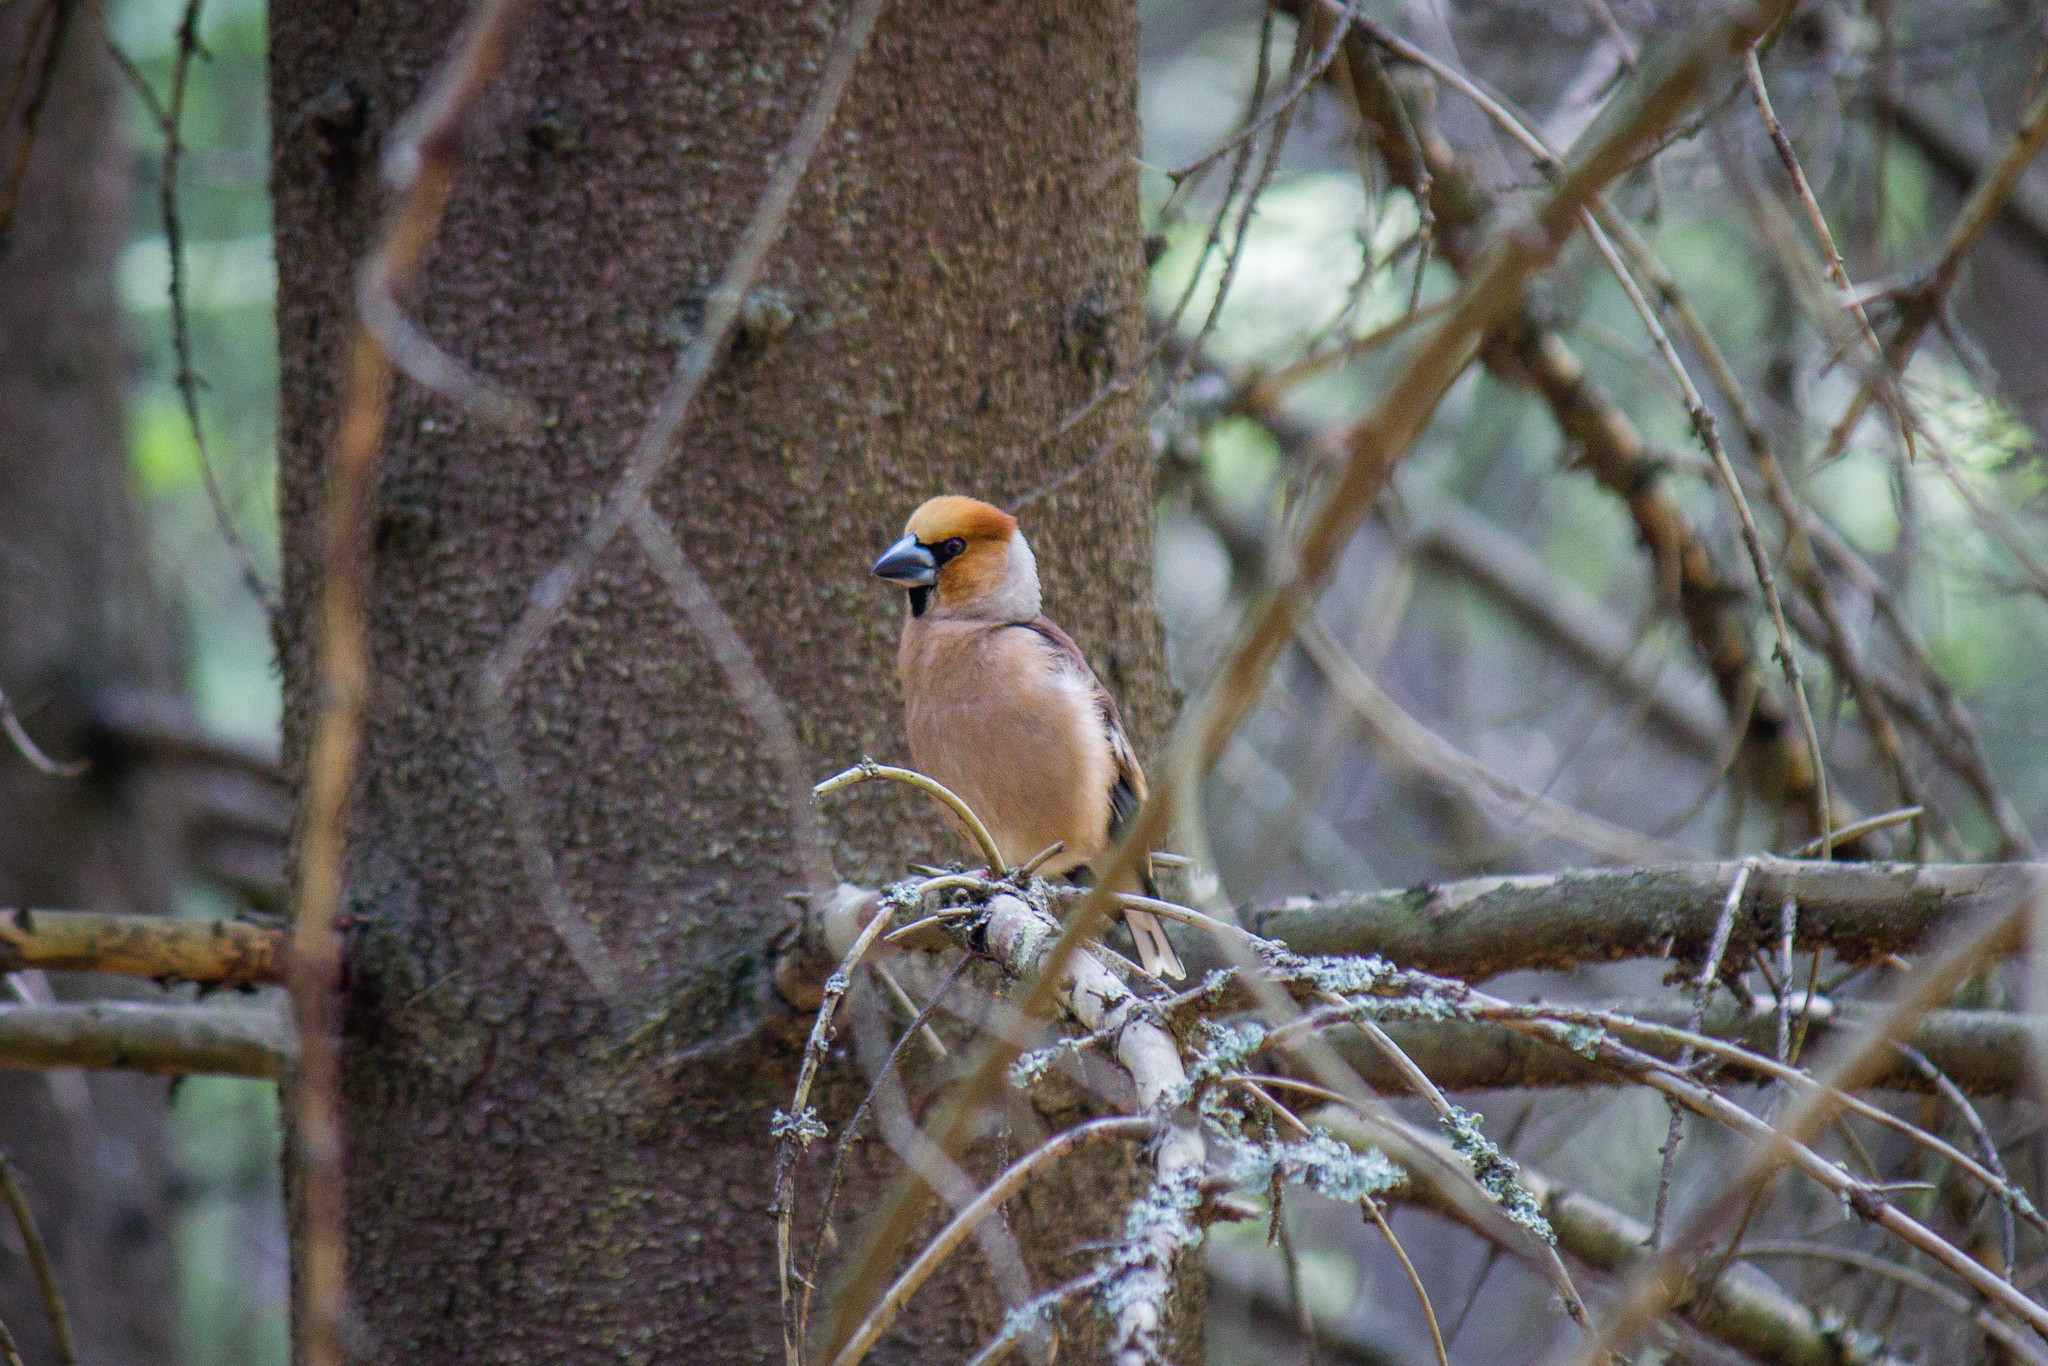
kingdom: Animalia
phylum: Chordata
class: Aves
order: Passeriformes
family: Fringillidae
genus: Coccothraustes
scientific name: Coccothraustes coccothraustes
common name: Hawfinch
